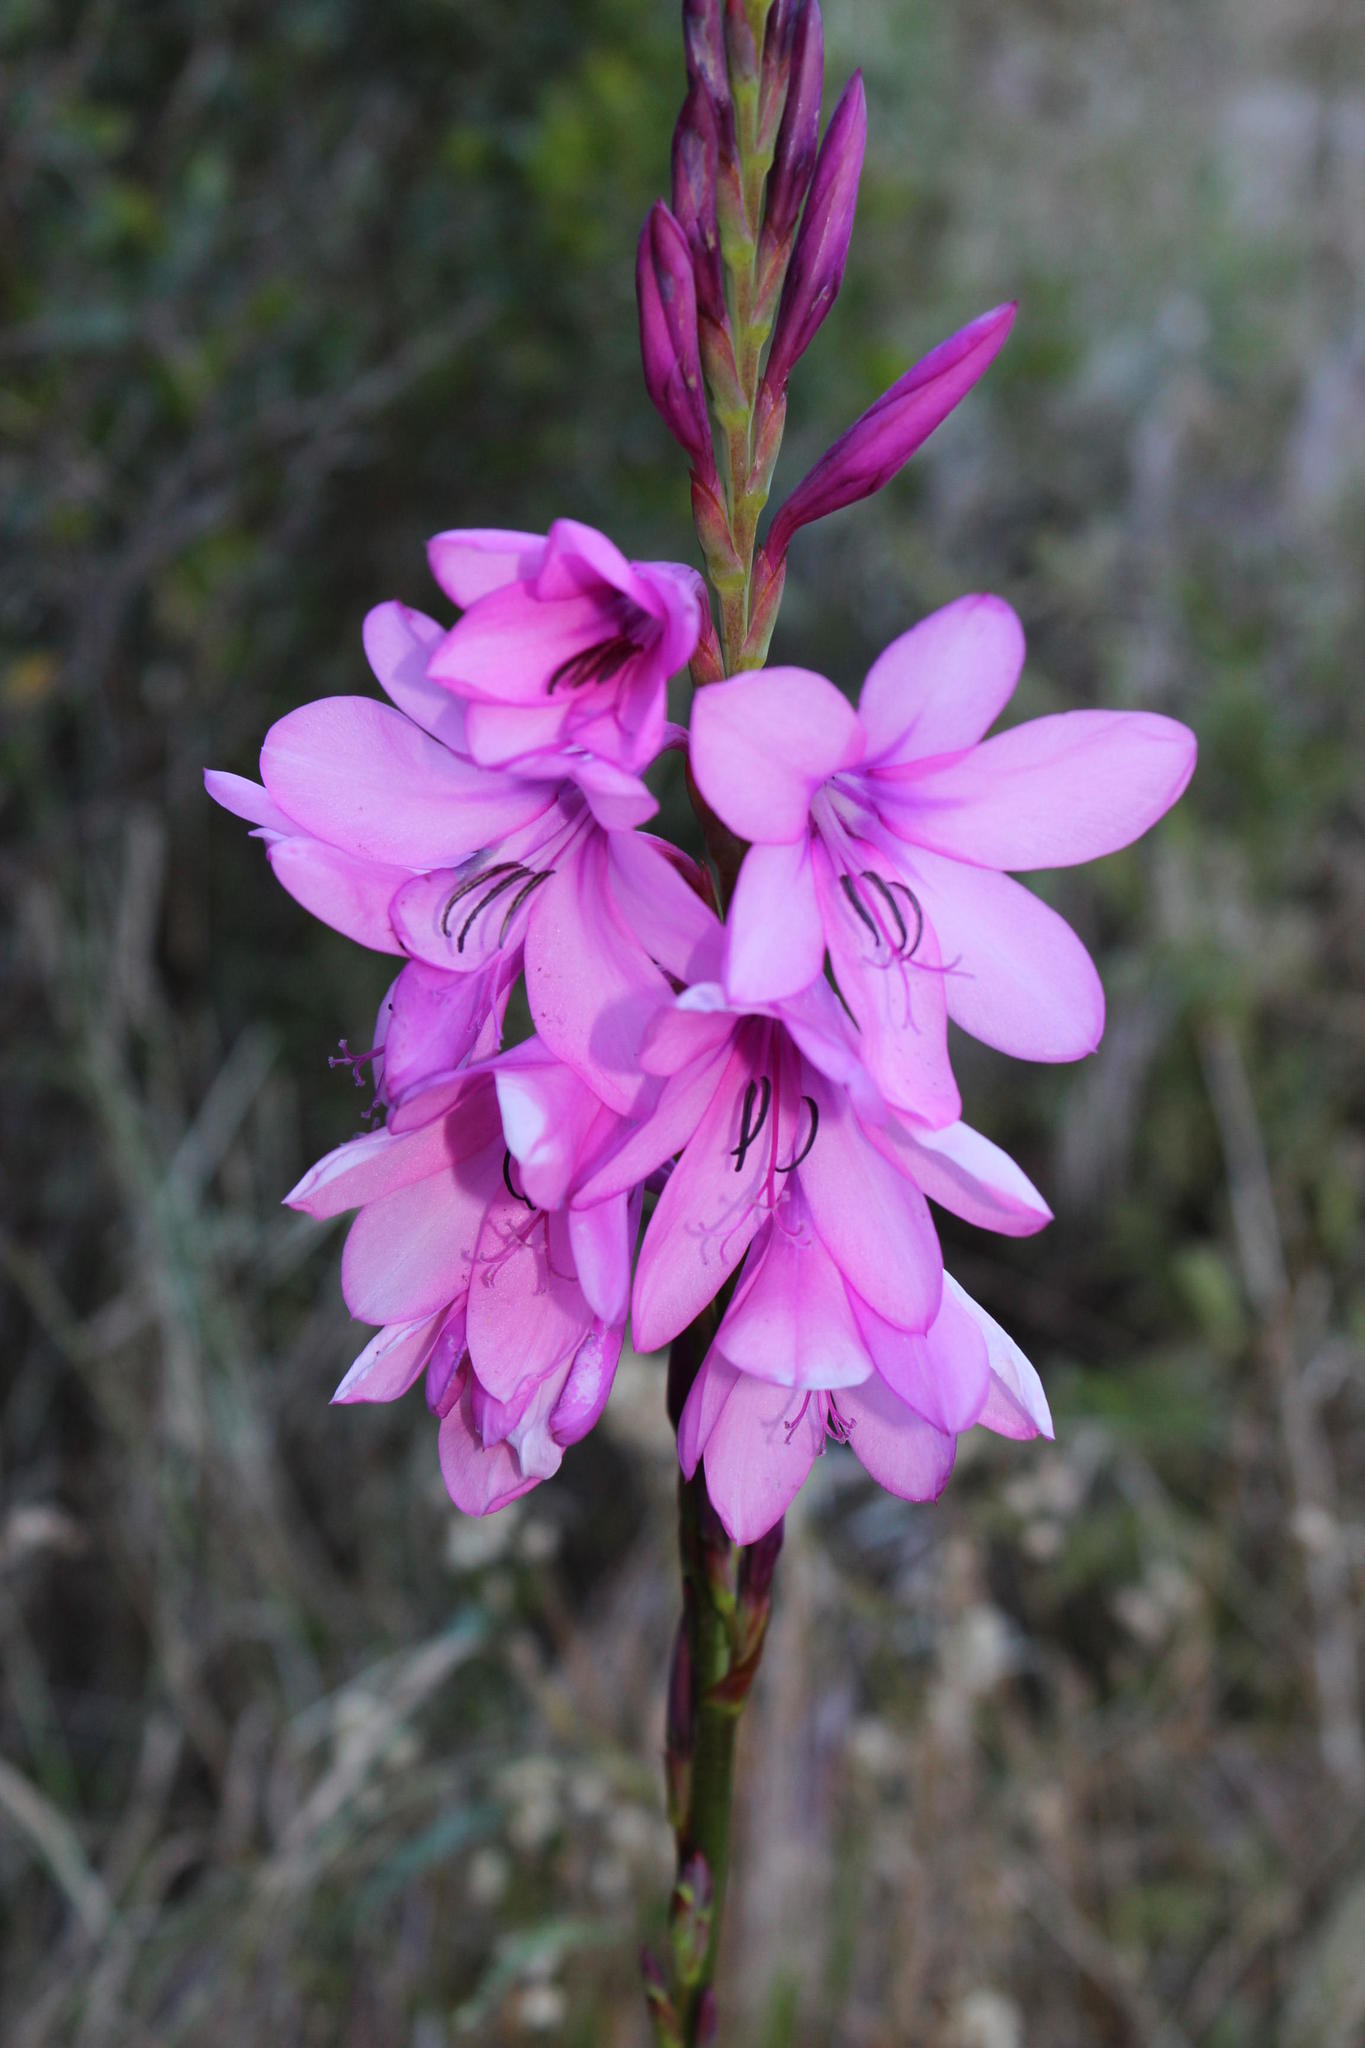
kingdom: Plantae
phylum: Tracheophyta
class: Liliopsida
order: Asparagales
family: Iridaceae
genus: Watsonia
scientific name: Watsonia borbonica
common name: Bugle-lily
